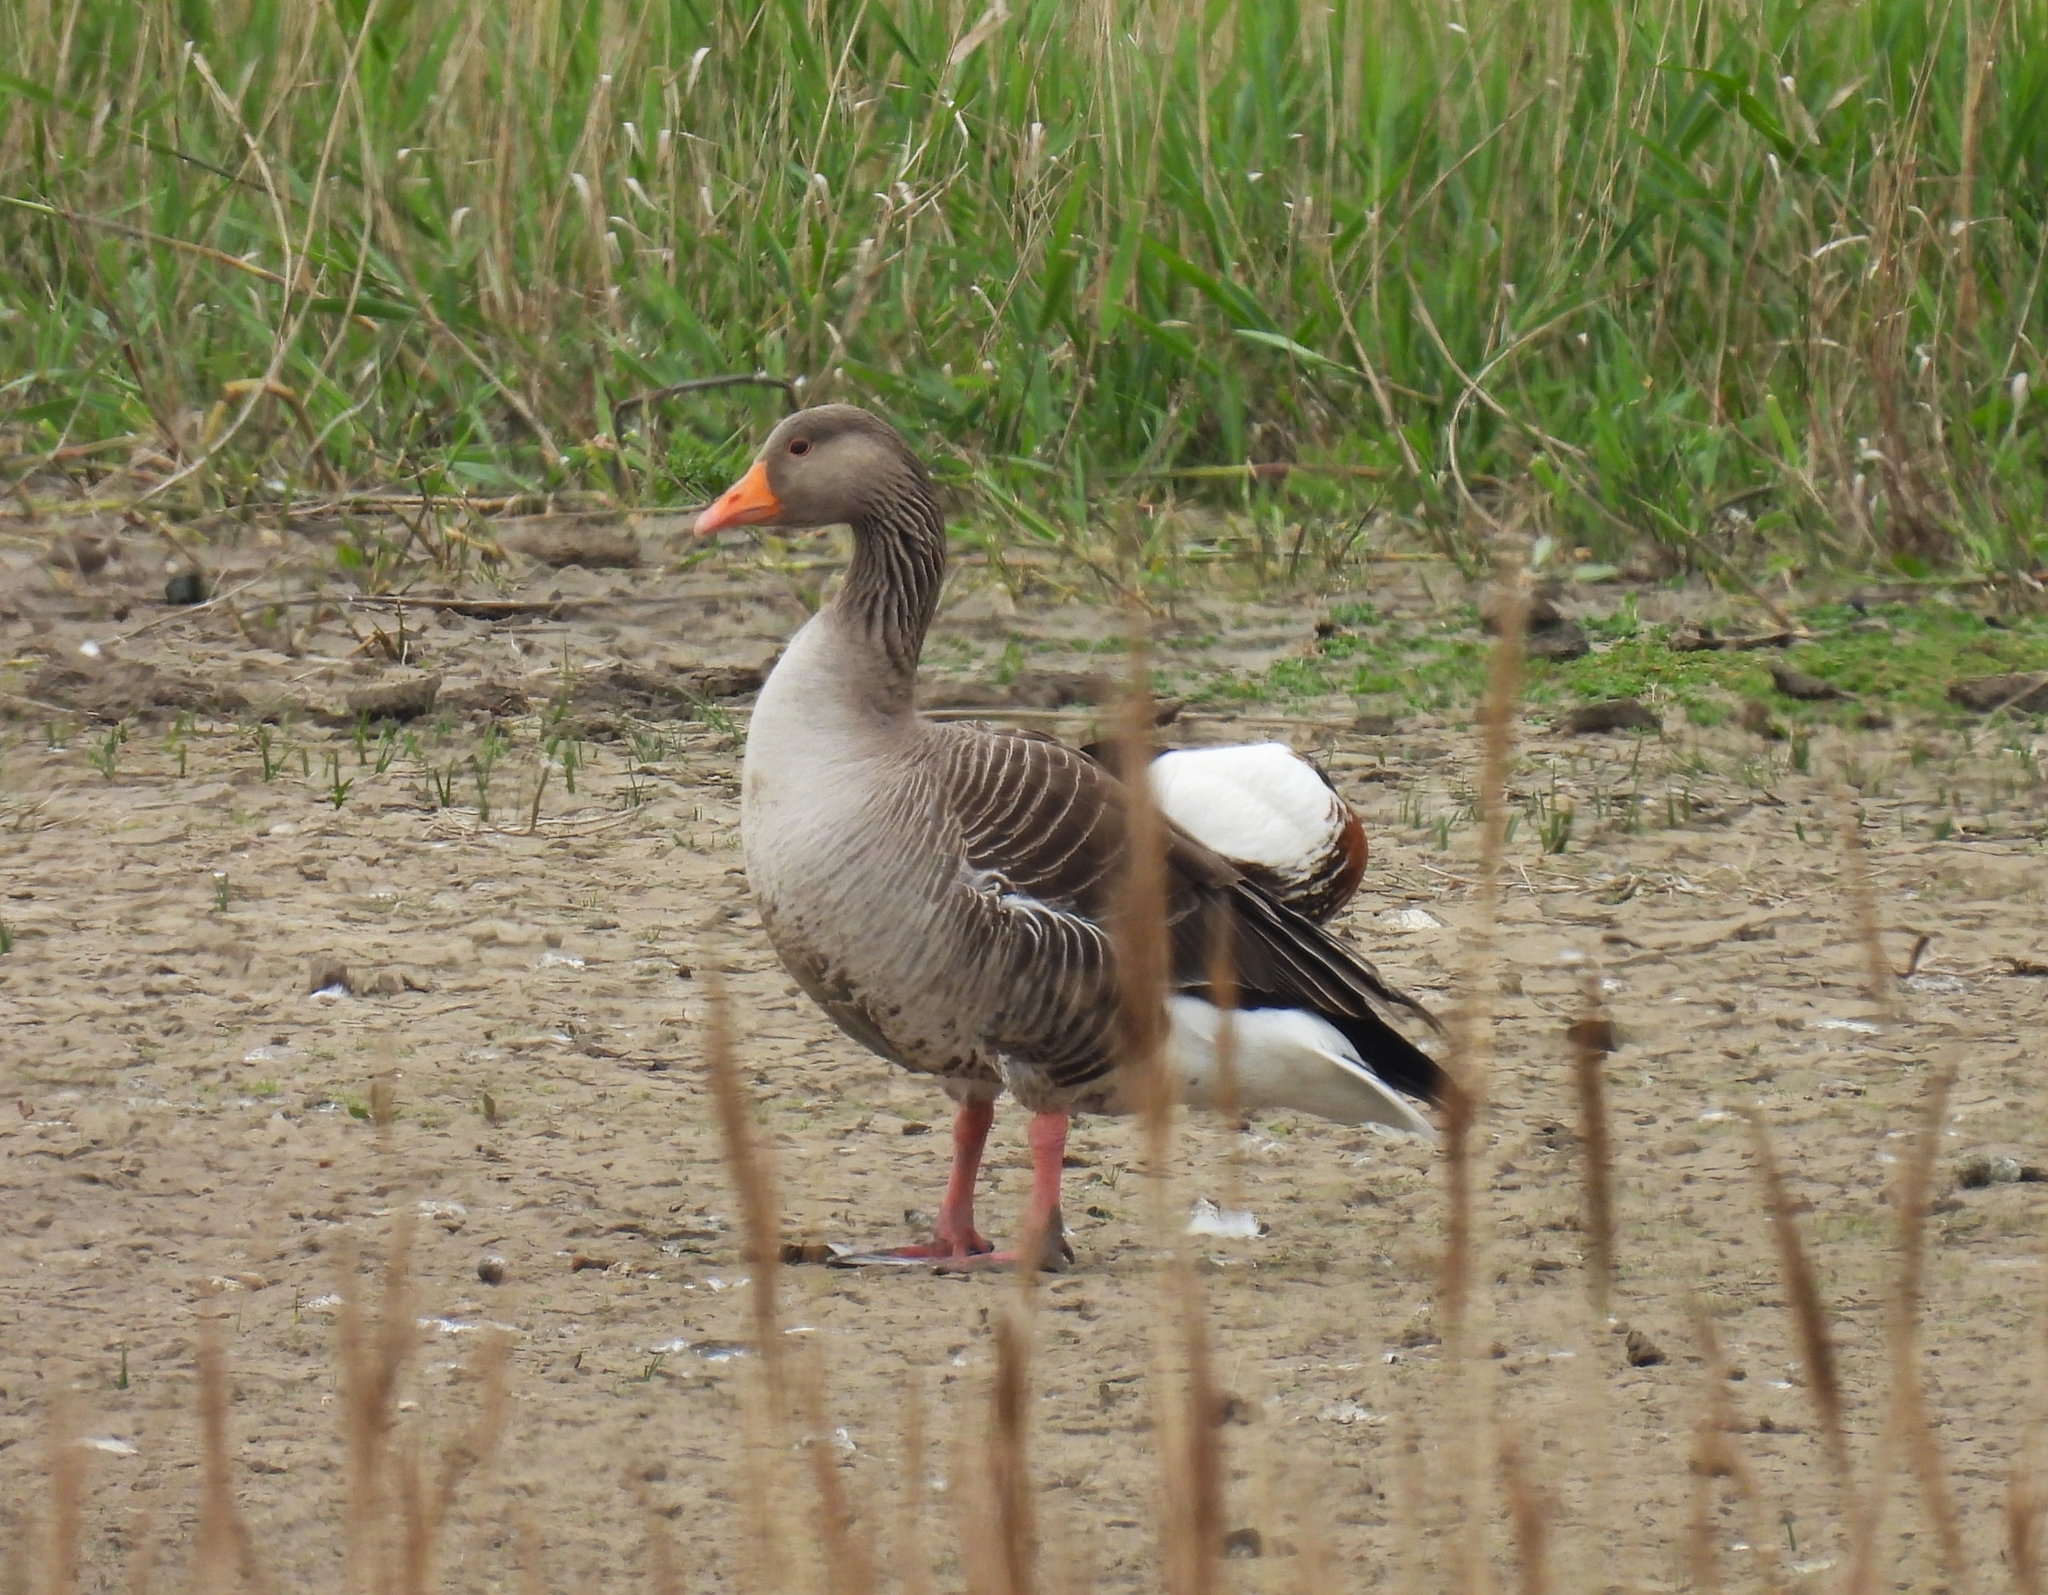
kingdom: Animalia
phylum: Chordata
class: Aves
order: Anseriformes
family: Anatidae
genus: Anser
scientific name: Anser anser
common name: Greylag goose
